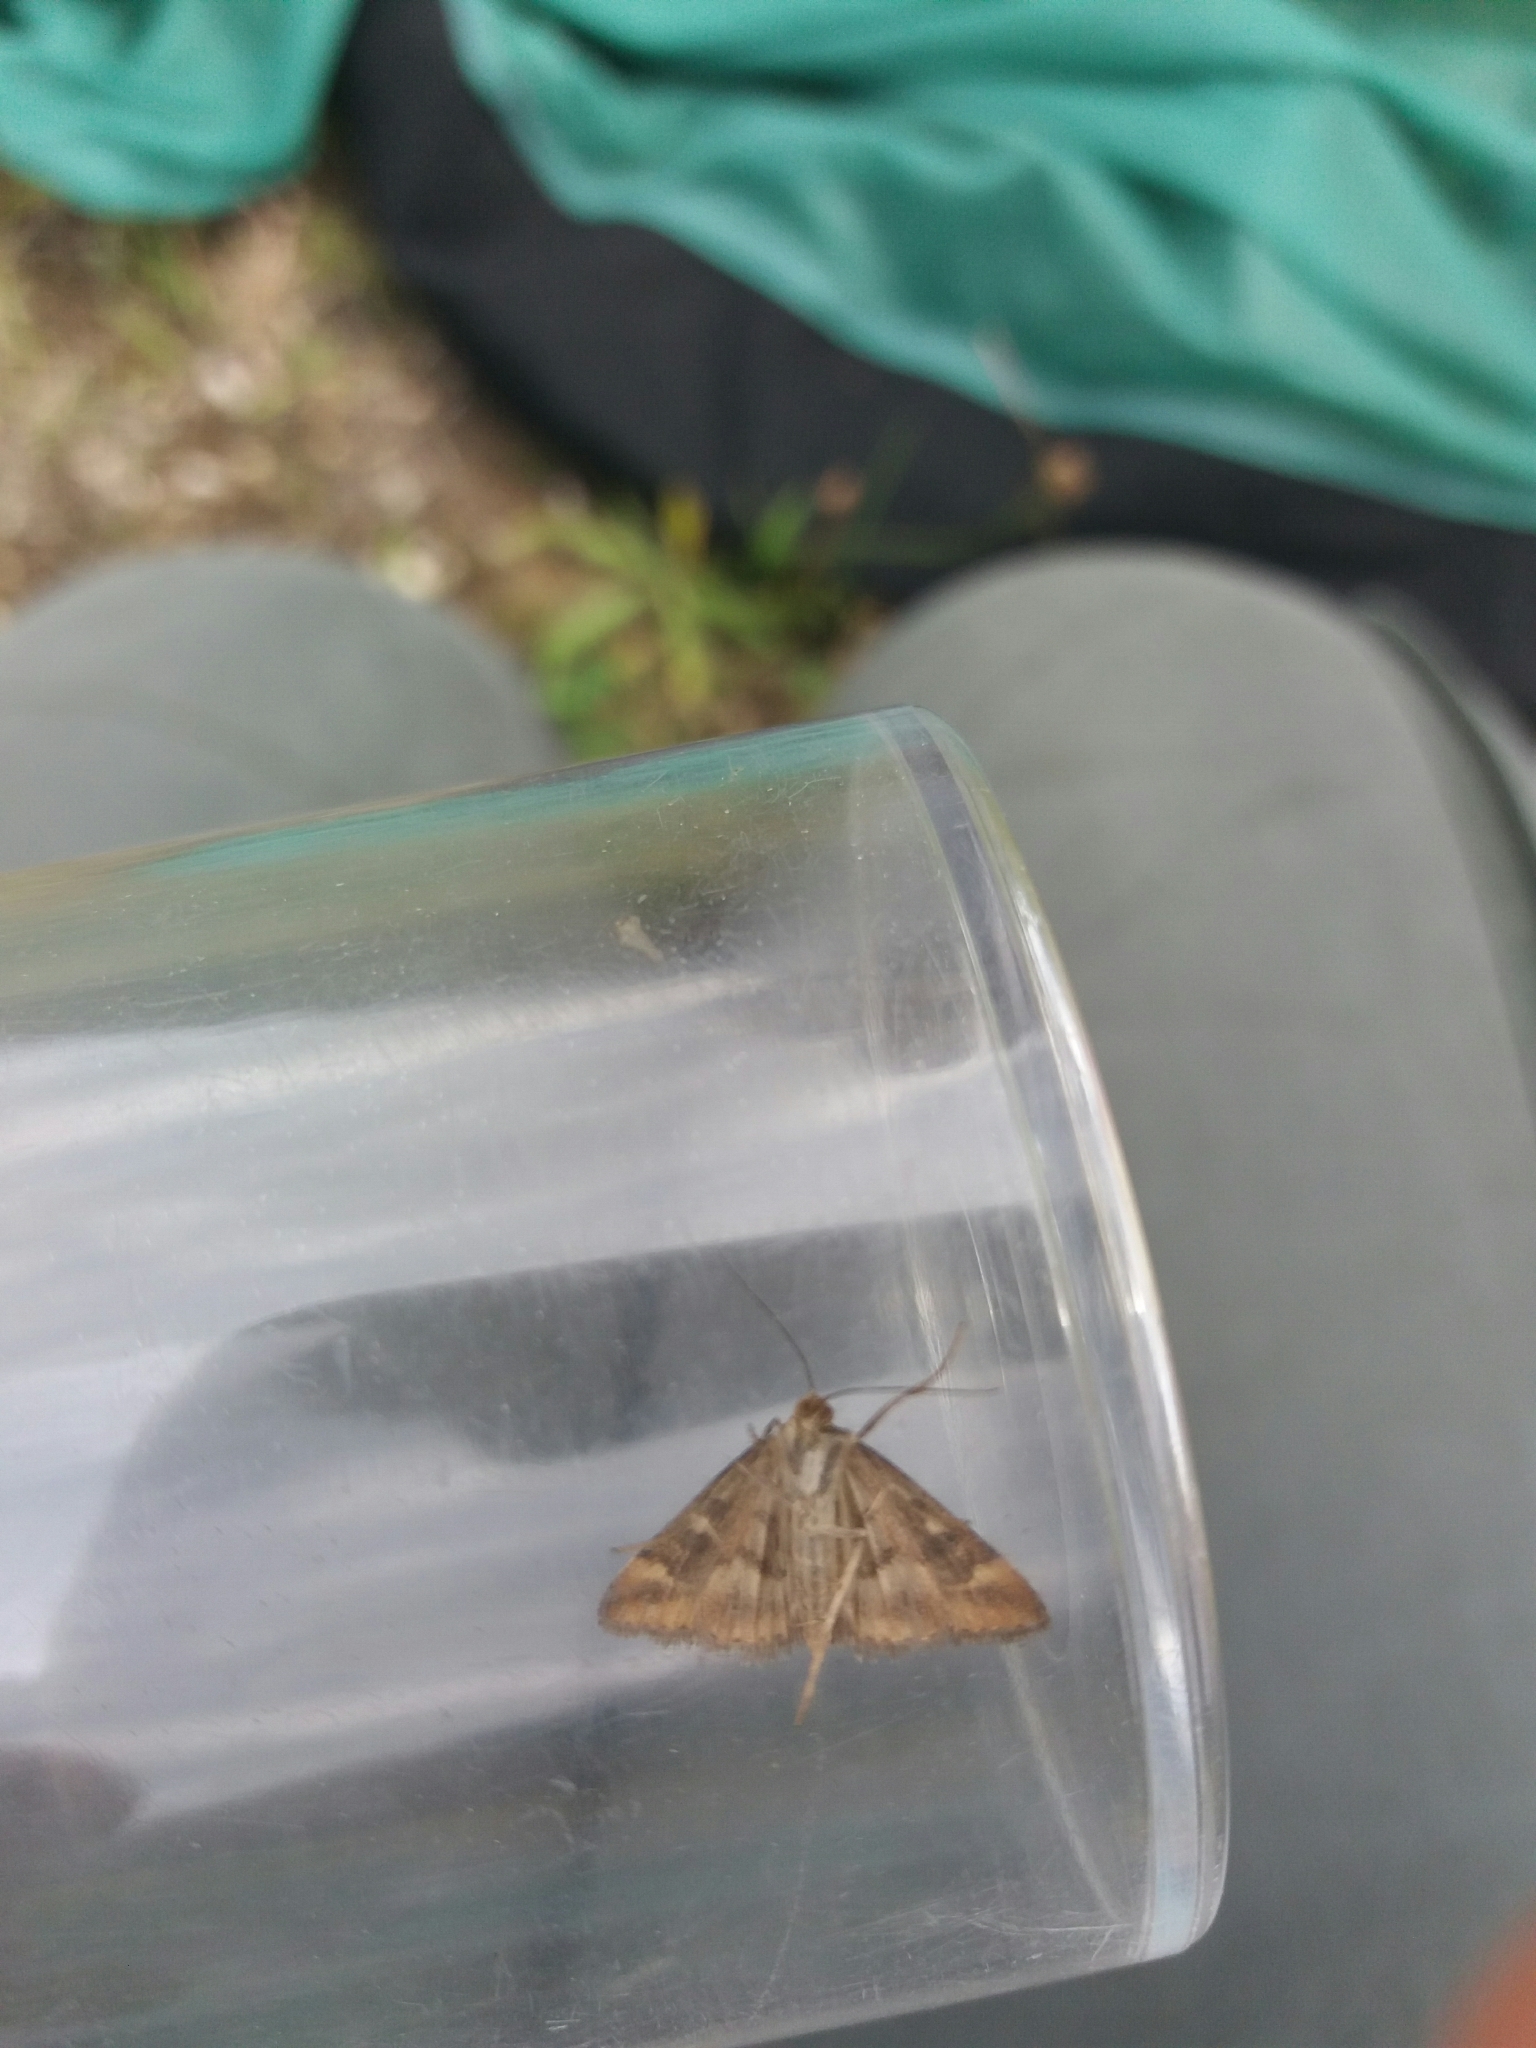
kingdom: Animalia
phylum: Arthropoda
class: Insecta
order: Lepidoptera
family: Crambidae
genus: Pyrausta
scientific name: Pyrausta despicata
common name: Straw-barred pearl
